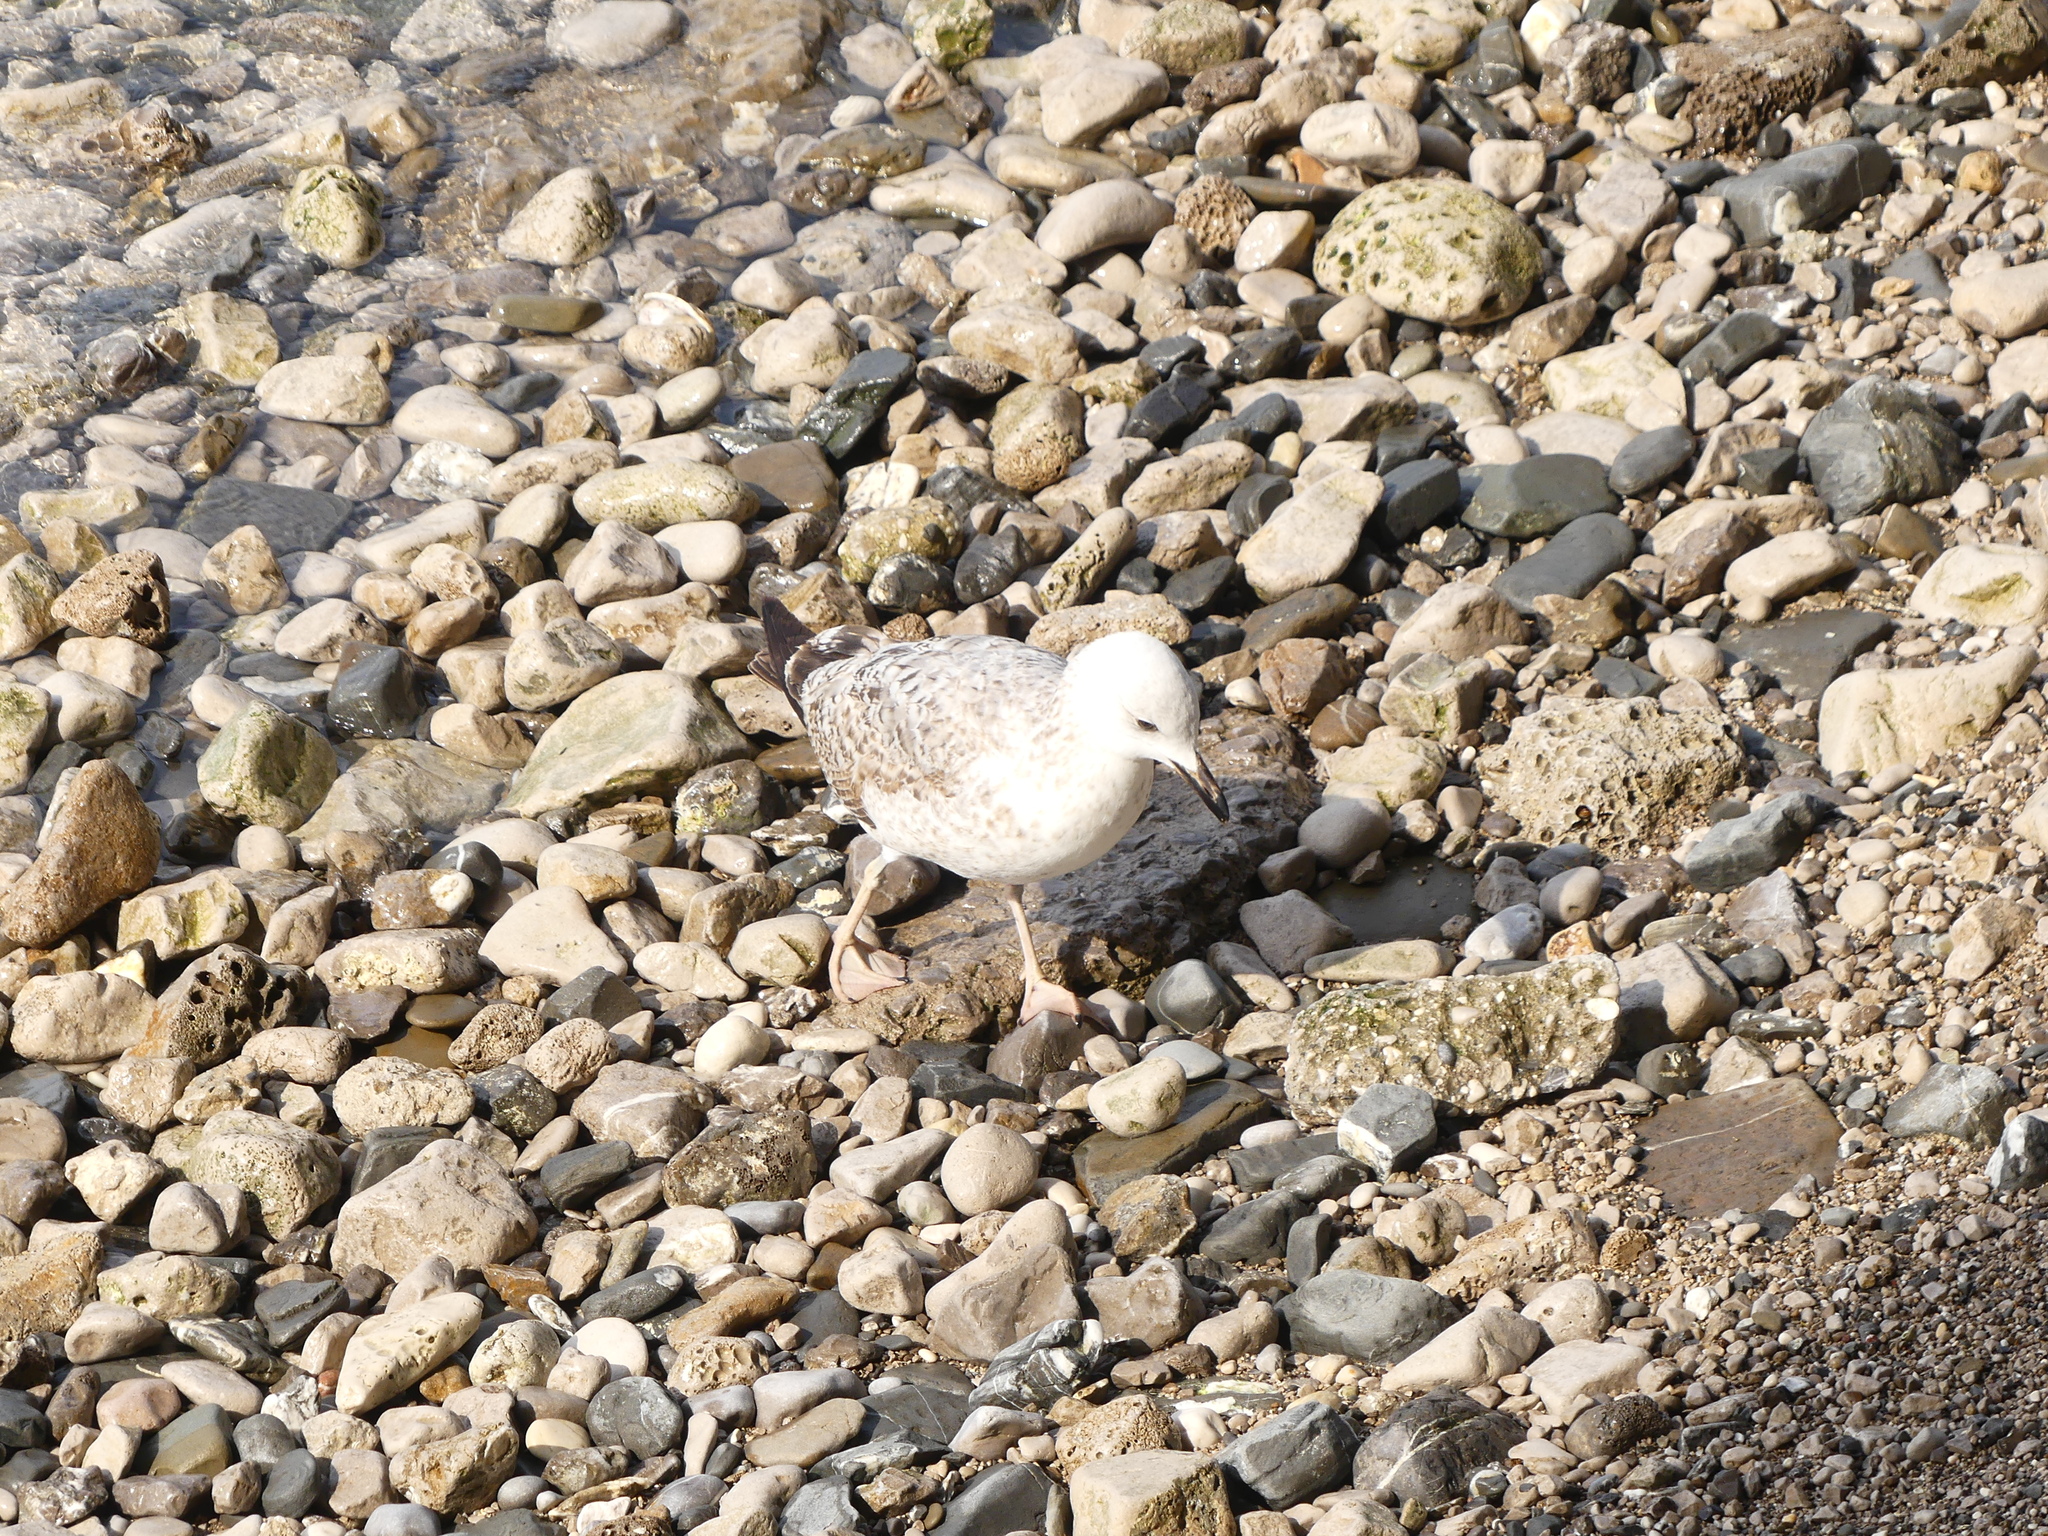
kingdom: Animalia
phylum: Chordata
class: Aves
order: Charadriiformes
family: Laridae
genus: Larus
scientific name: Larus michahellis
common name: Yellow-legged gull
